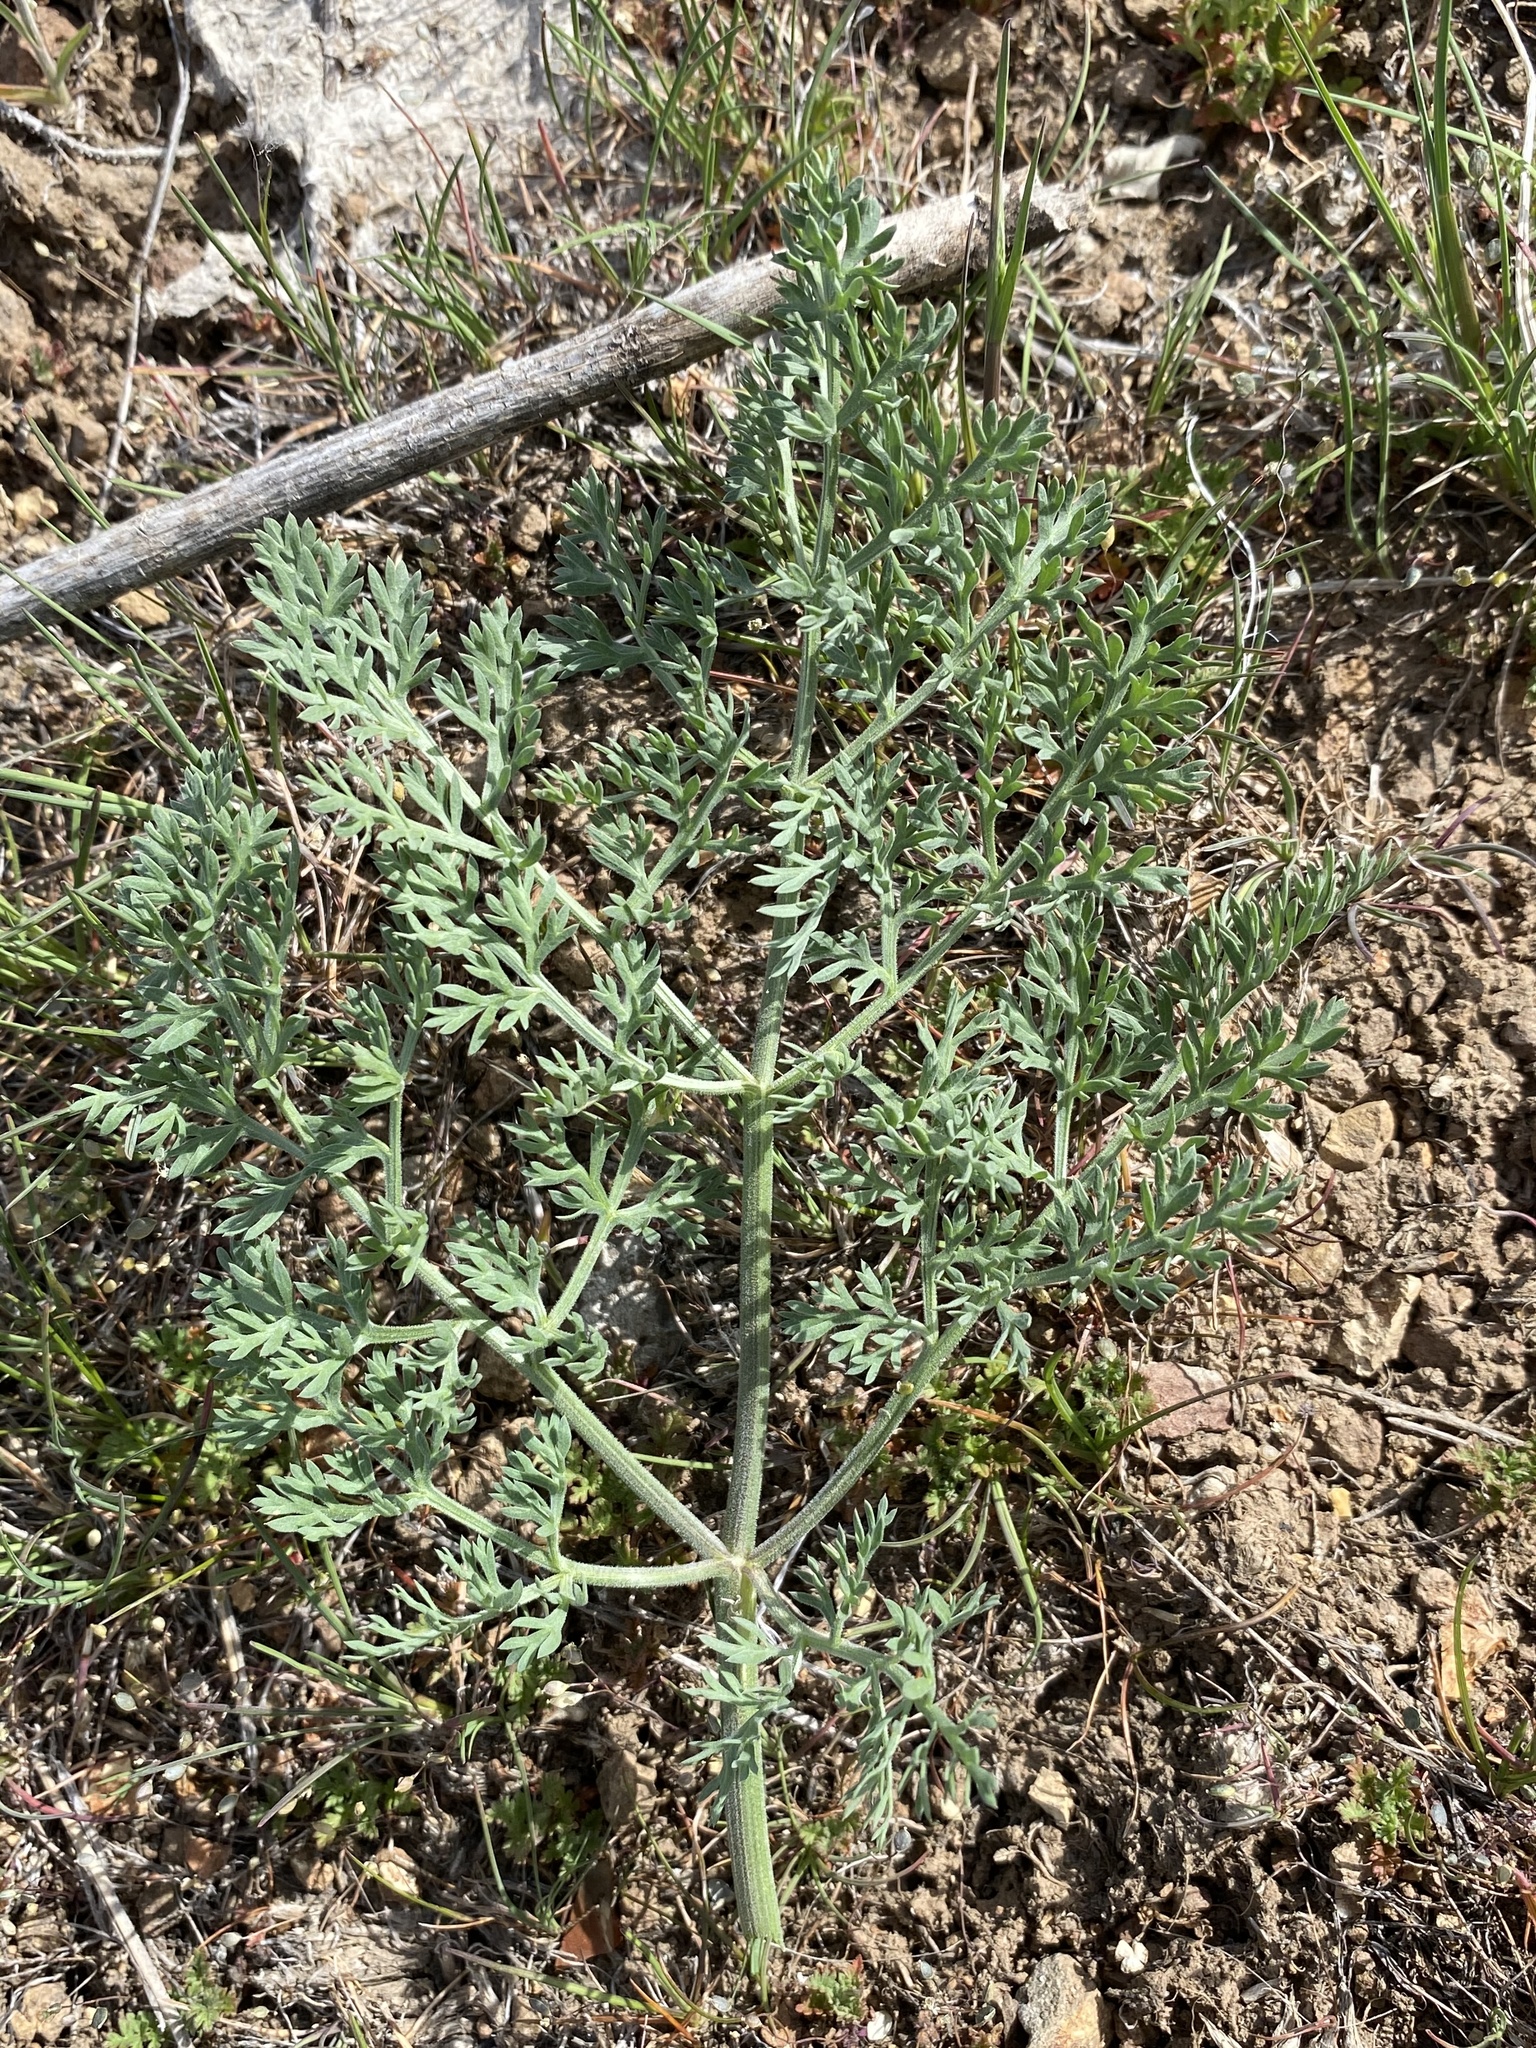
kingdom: Plantae
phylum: Tracheophyta
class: Magnoliopsida
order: Apiales
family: Apiaceae
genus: Lomatium
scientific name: Lomatium macrocarpum
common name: Big-seed biscuitroot
